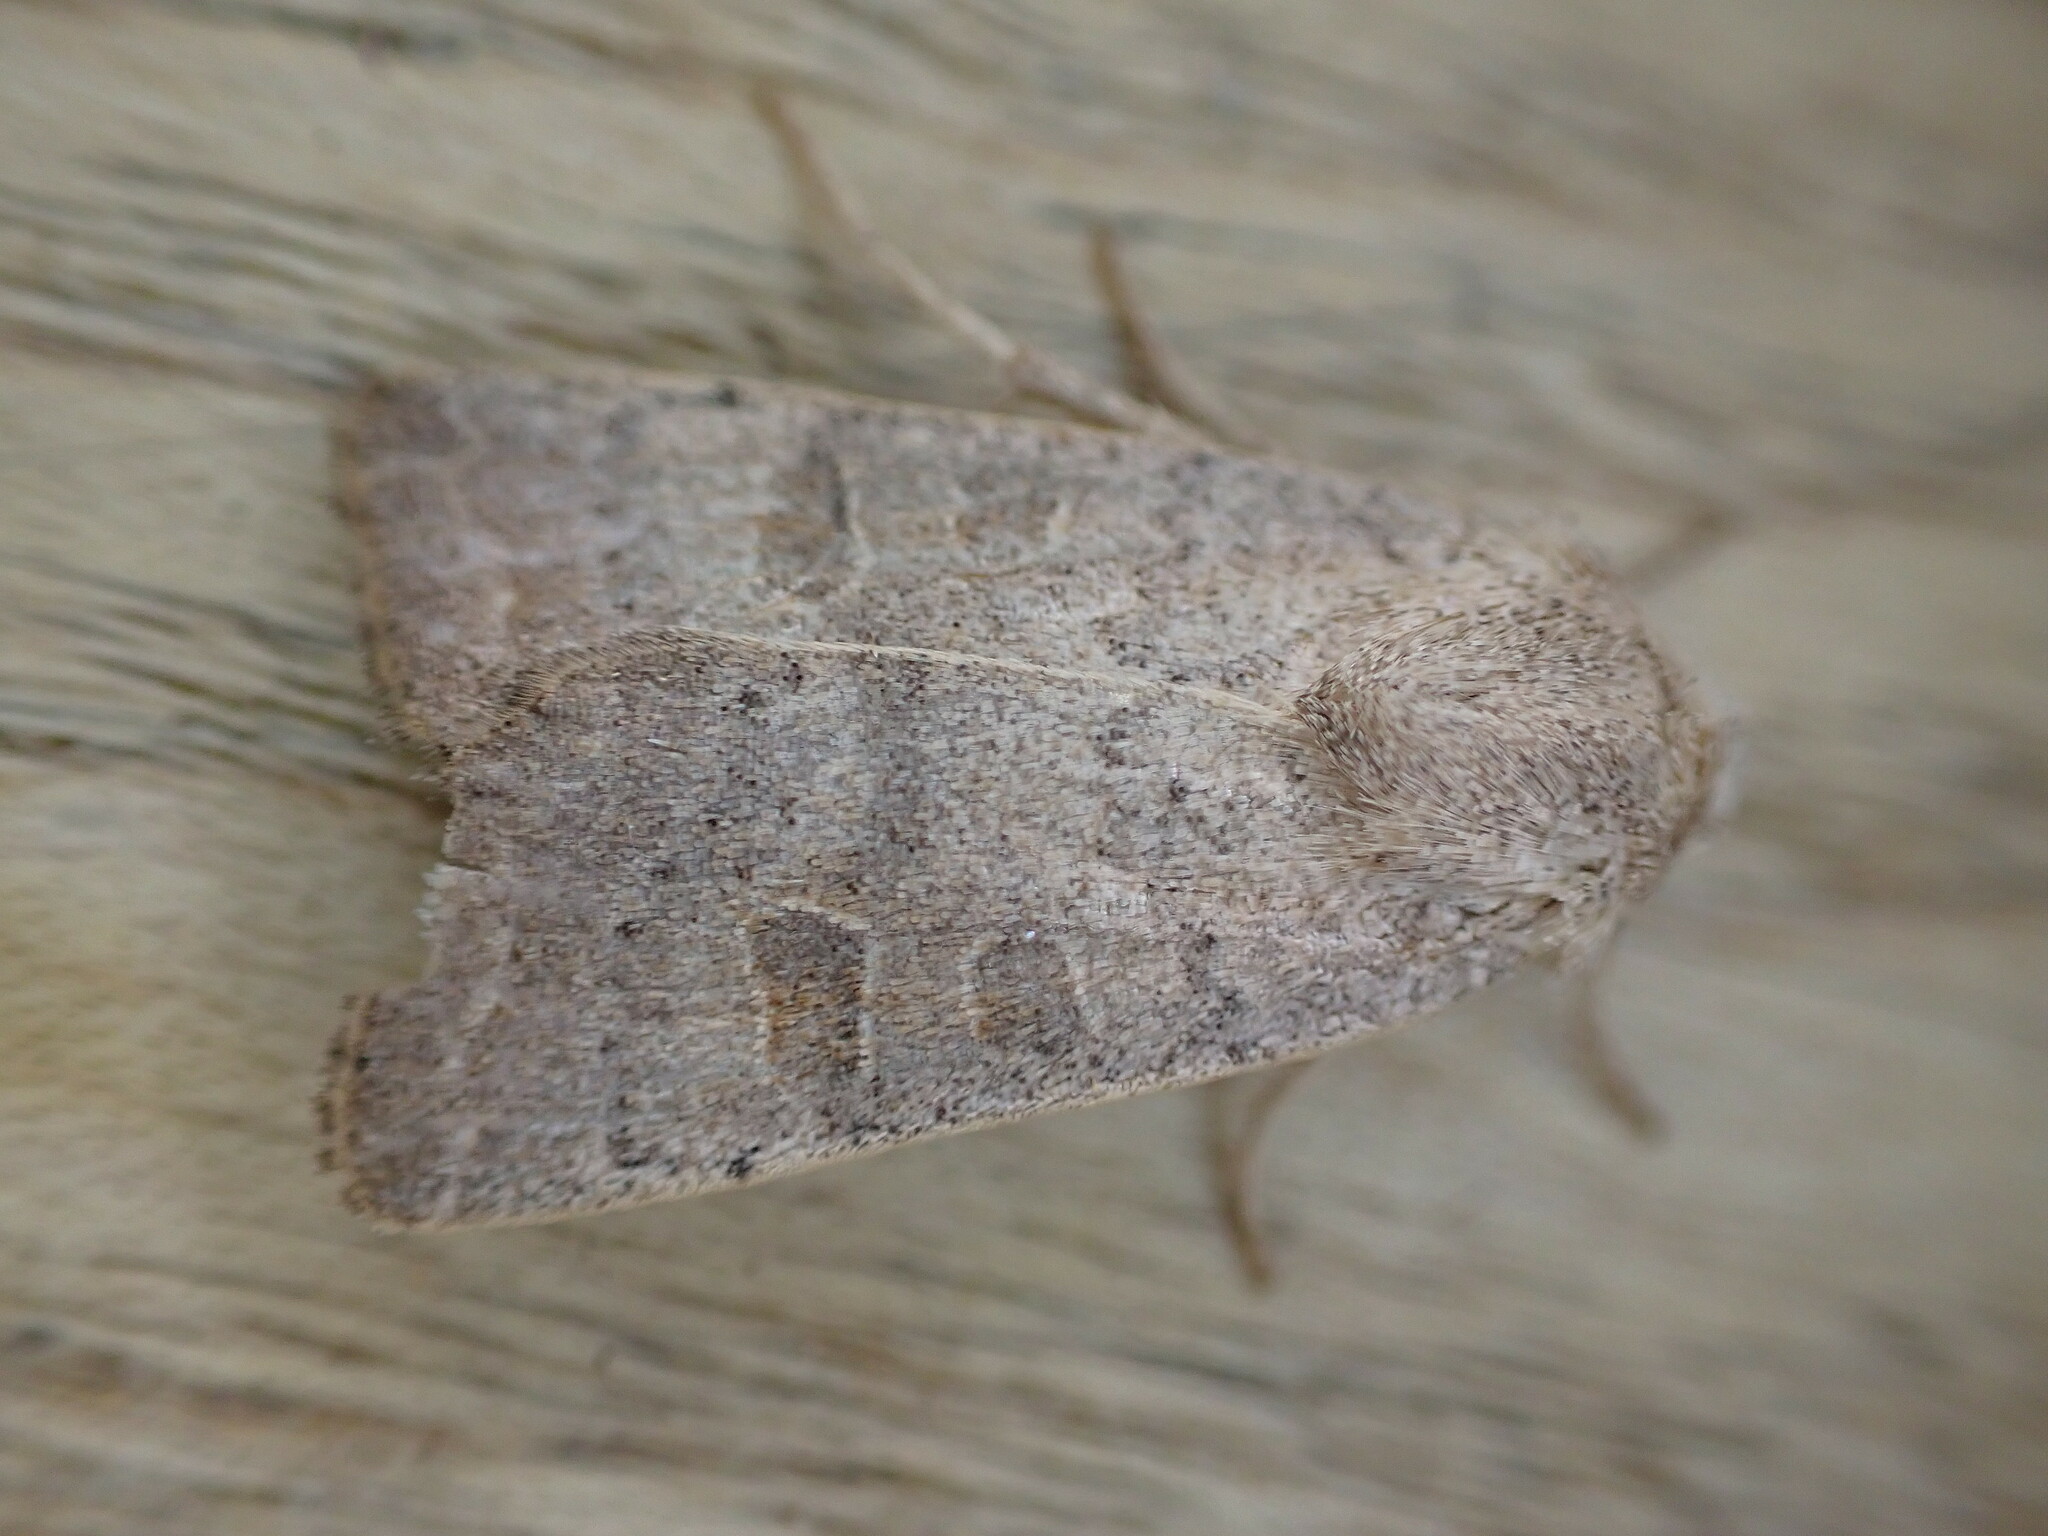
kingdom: Animalia
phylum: Arthropoda
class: Insecta
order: Lepidoptera
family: Noctuidae
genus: Hoplodrina
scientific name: Hoplodrina ambigua
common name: Vine's rustic
